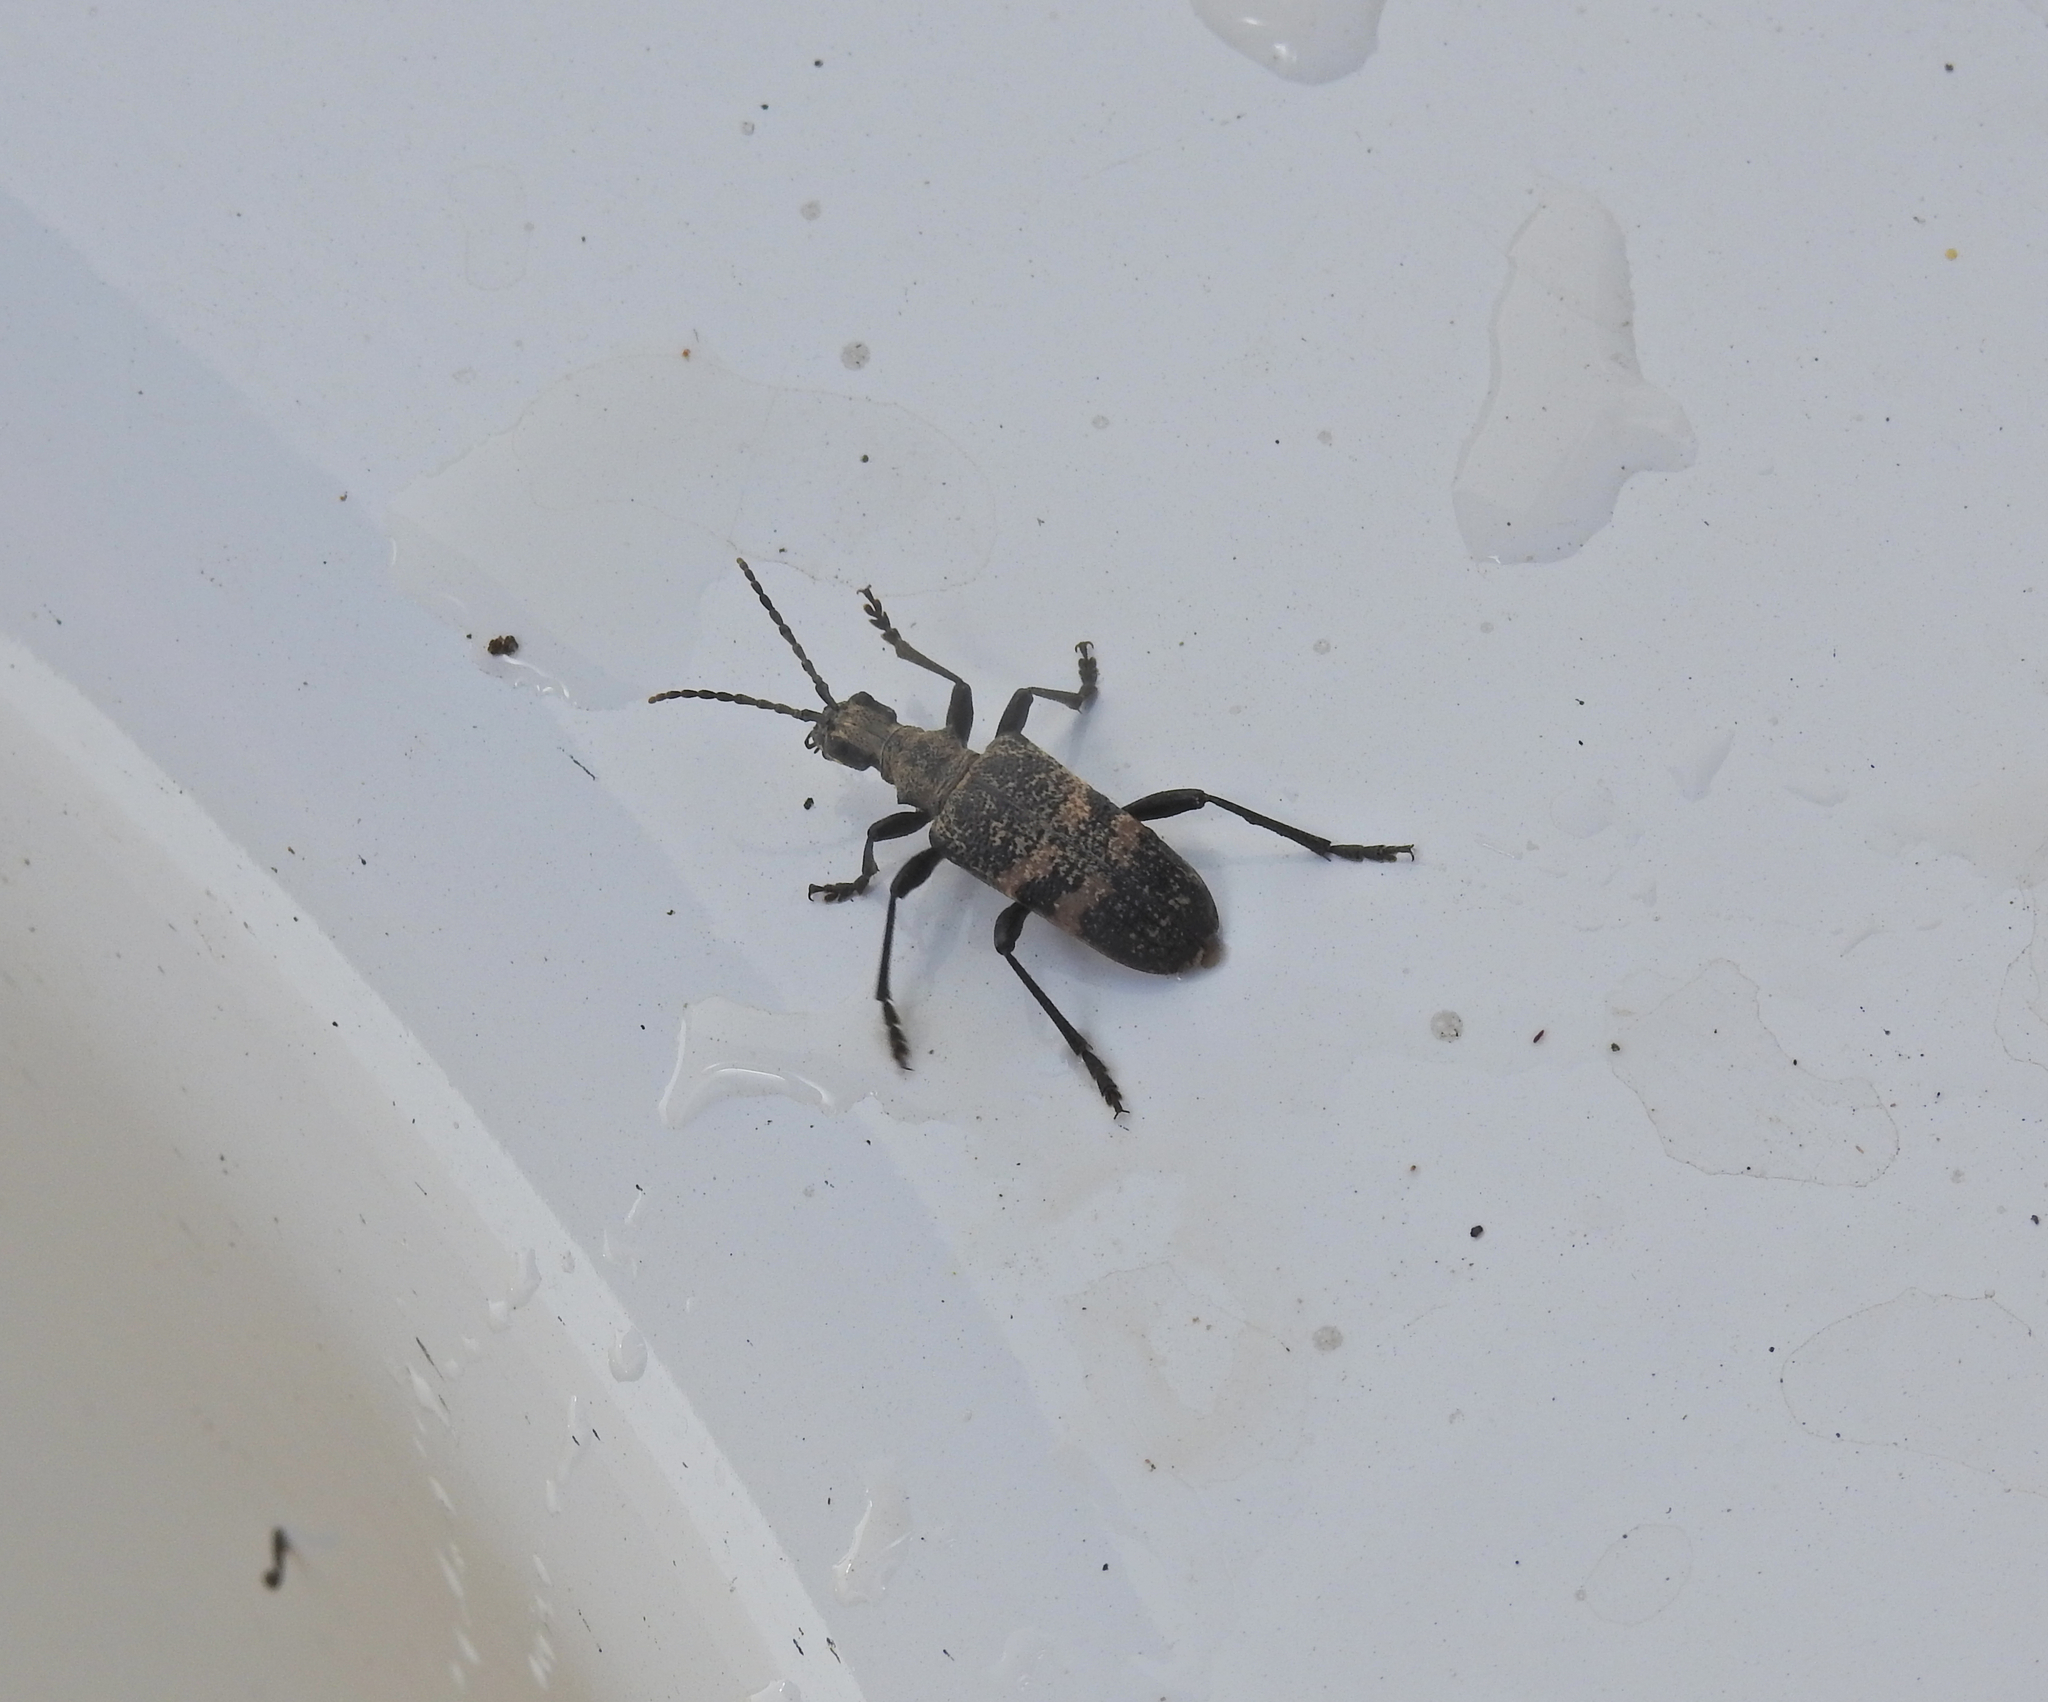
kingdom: Animalia
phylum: Arthropoda
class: Insecta
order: Coleoptera
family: Cerambycidae
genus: Rhagium
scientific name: Rhagium mordax
